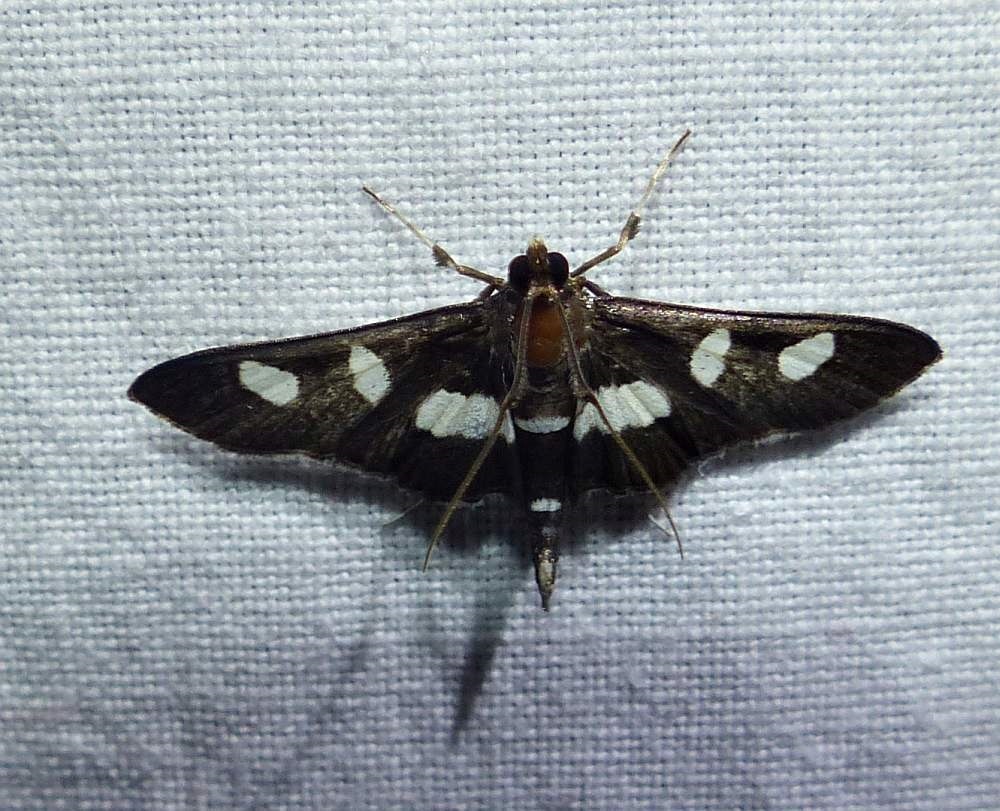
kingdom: Animalia
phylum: Arthropoda
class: Insecta
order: Lepidoptera
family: Crambidae
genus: Desmia
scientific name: Desmia
